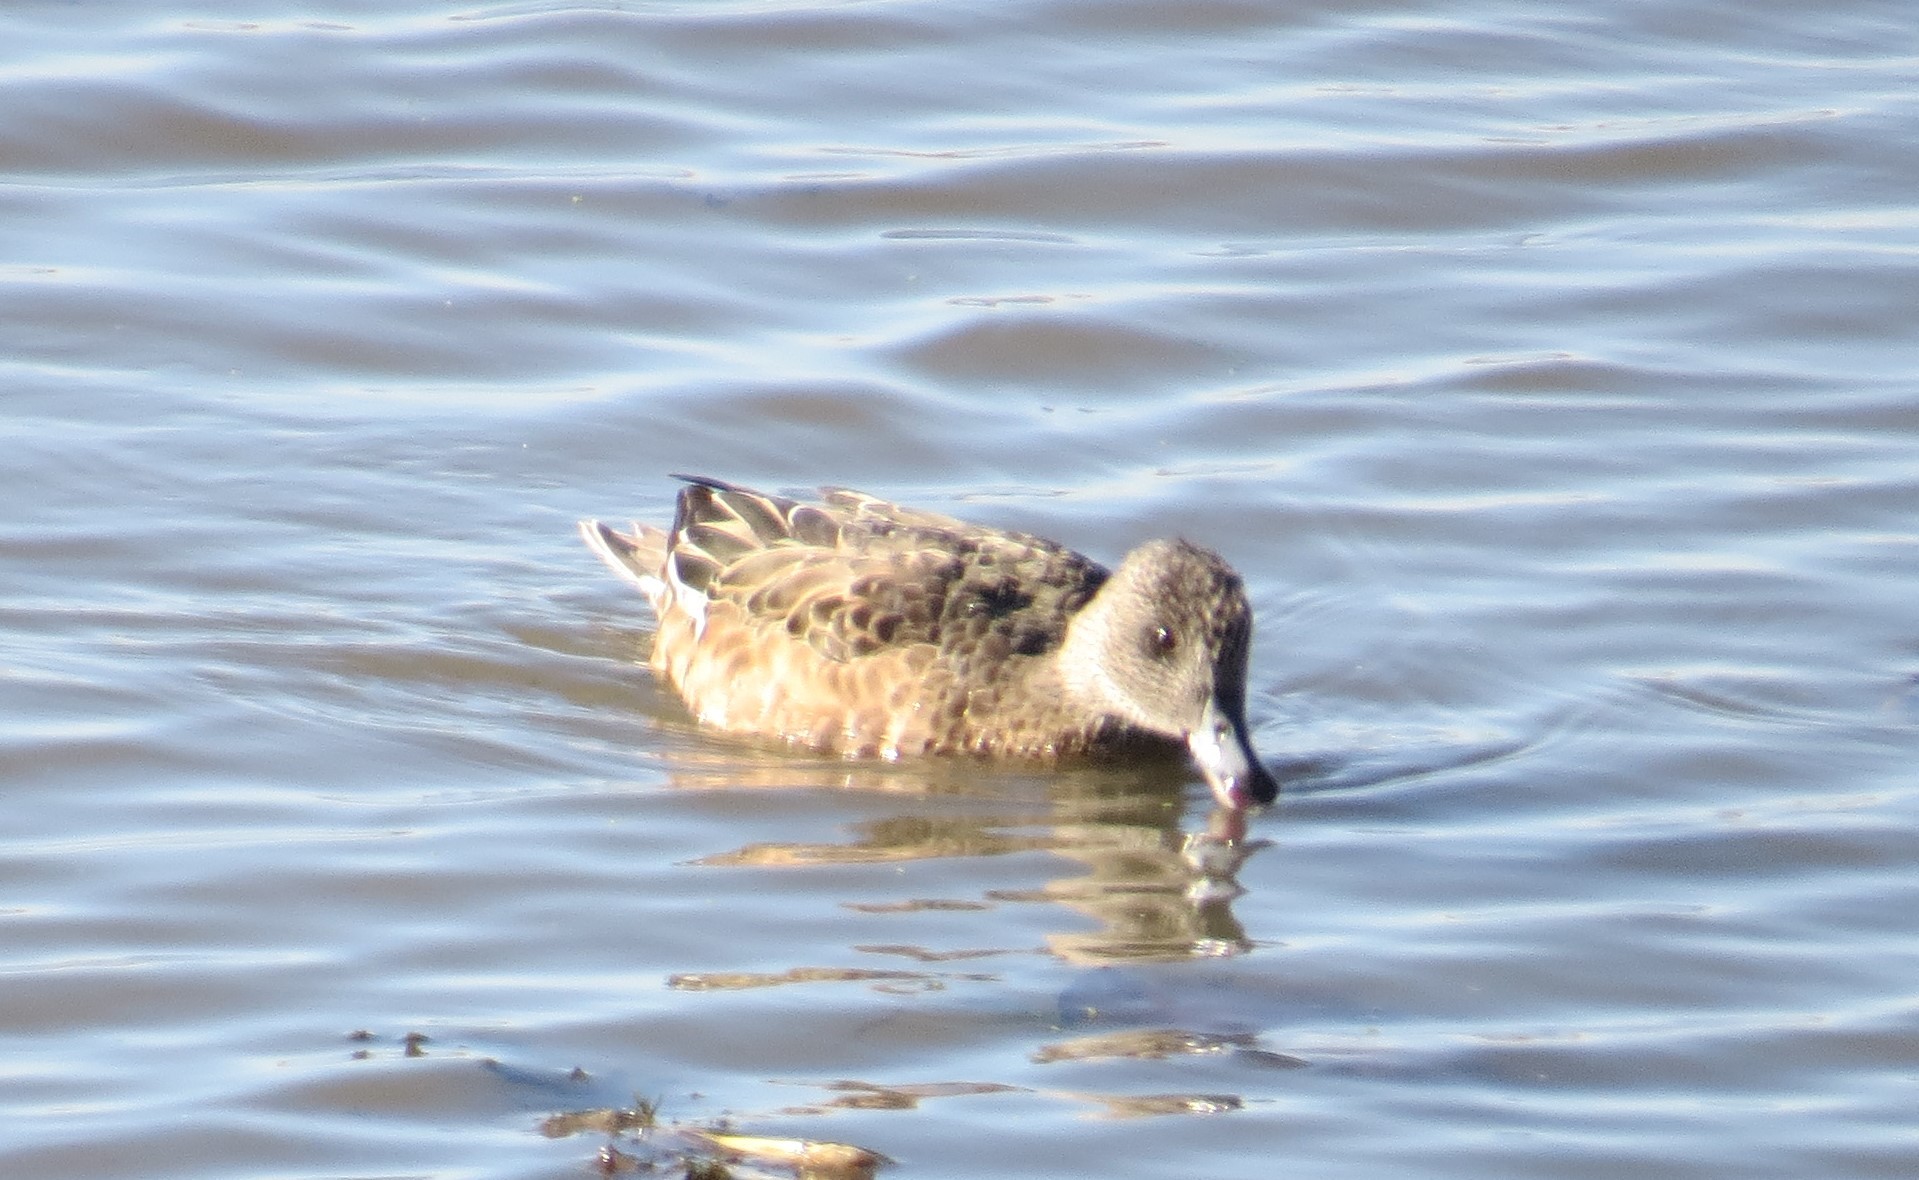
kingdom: Animalia
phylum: Chordata
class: Aves
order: Anseriformes
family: Anatidae
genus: Mareca
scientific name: Mareca americana
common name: American wigeon
